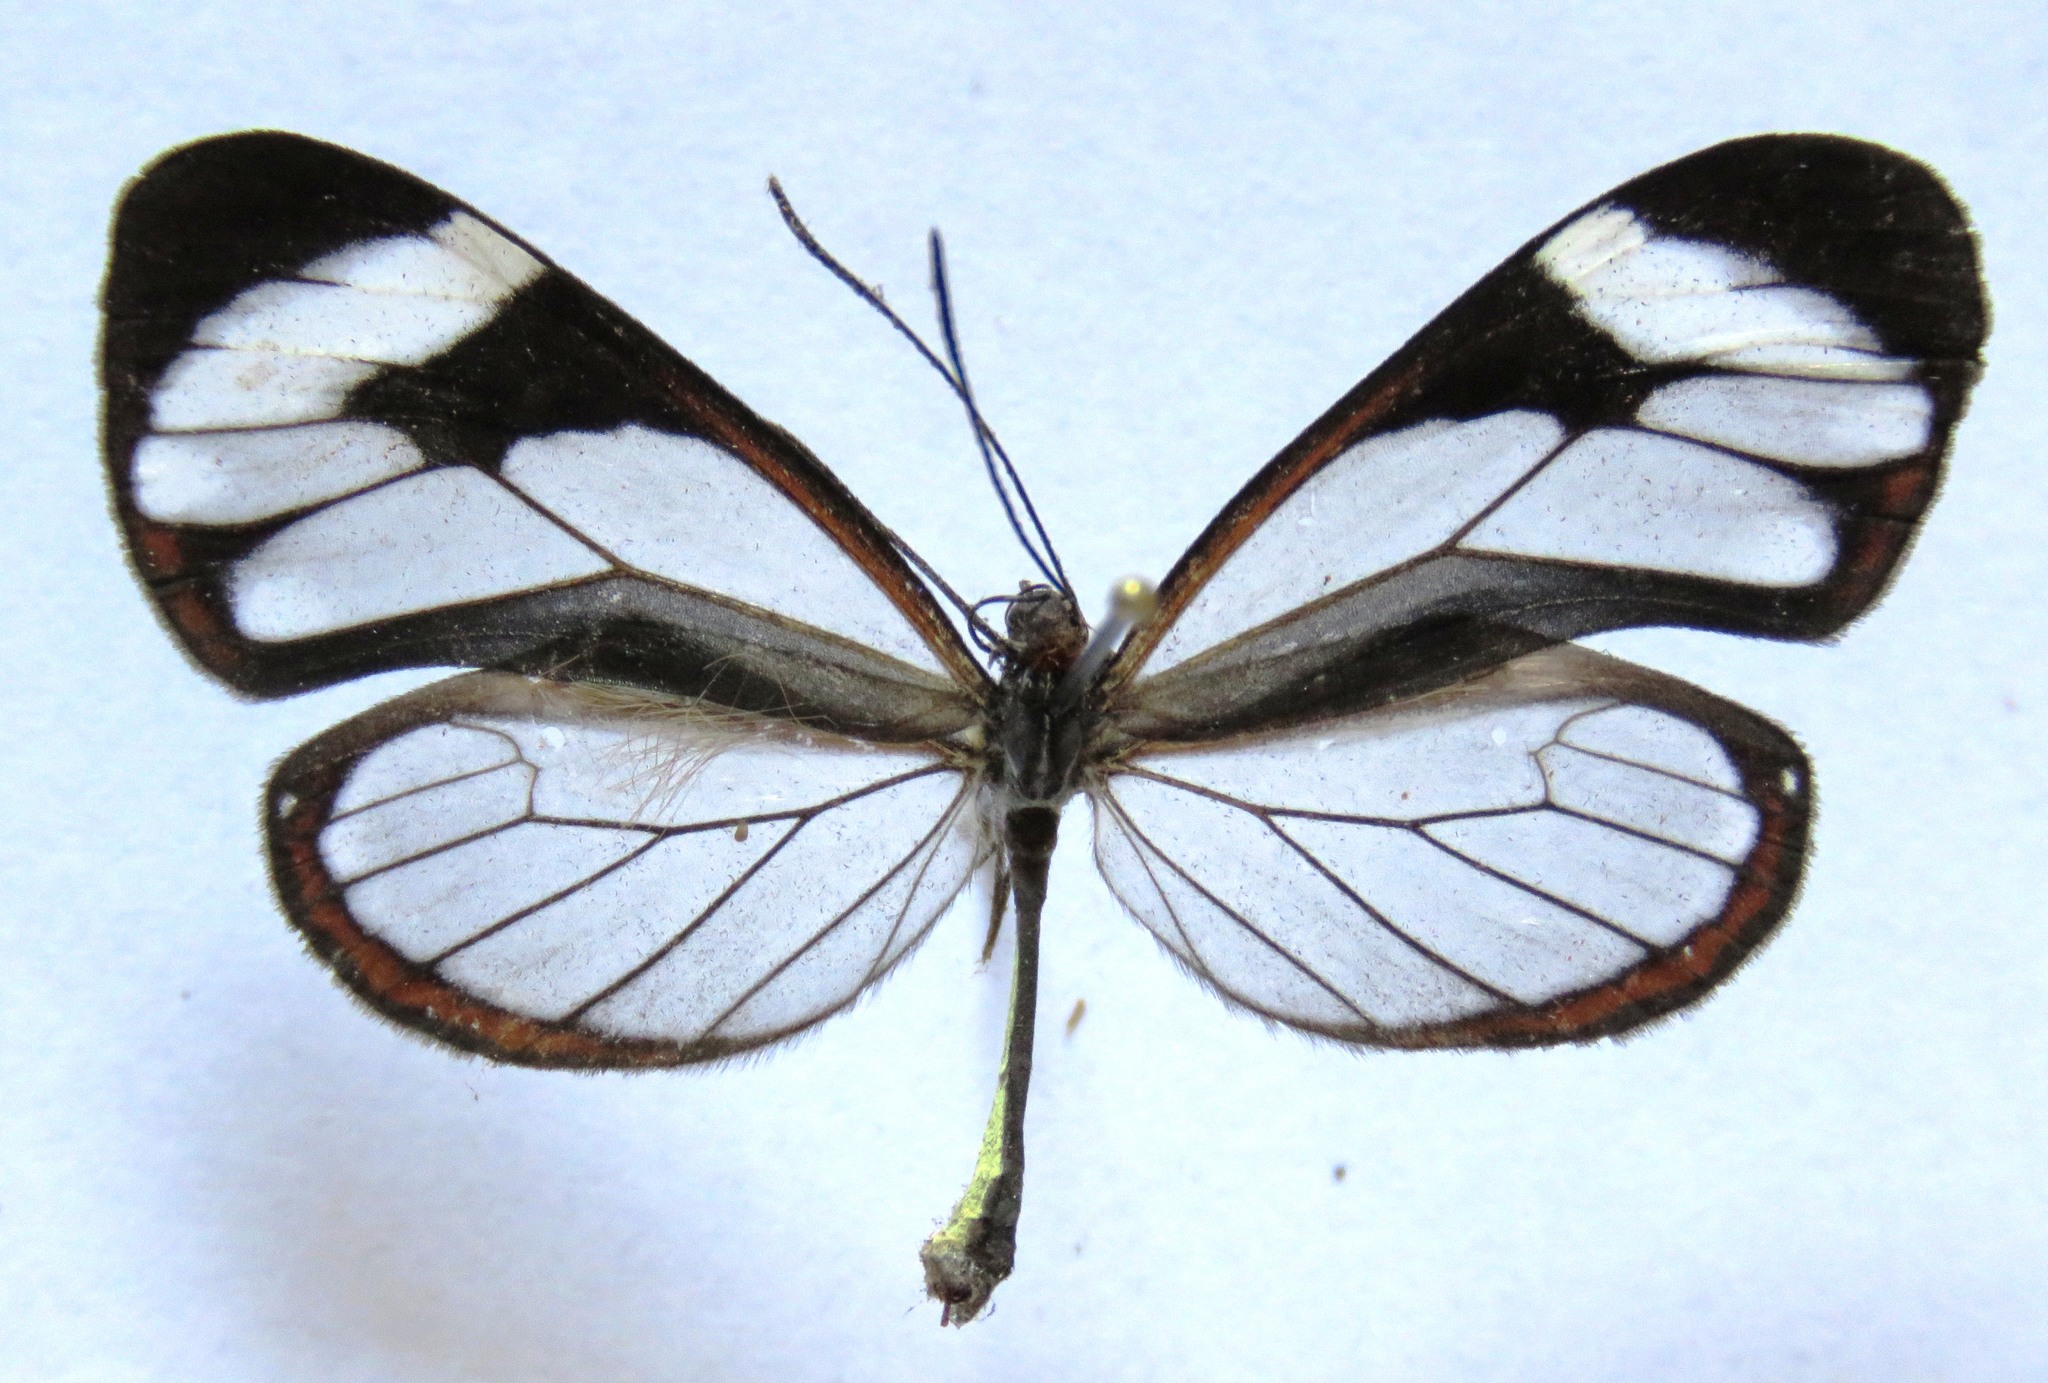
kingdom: Animalia
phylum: Arthropoda
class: Insecta
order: Lepidoptera
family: Nymphalidae
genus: Ithomia
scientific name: Ithomia patilla
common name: Patilla clearwing
